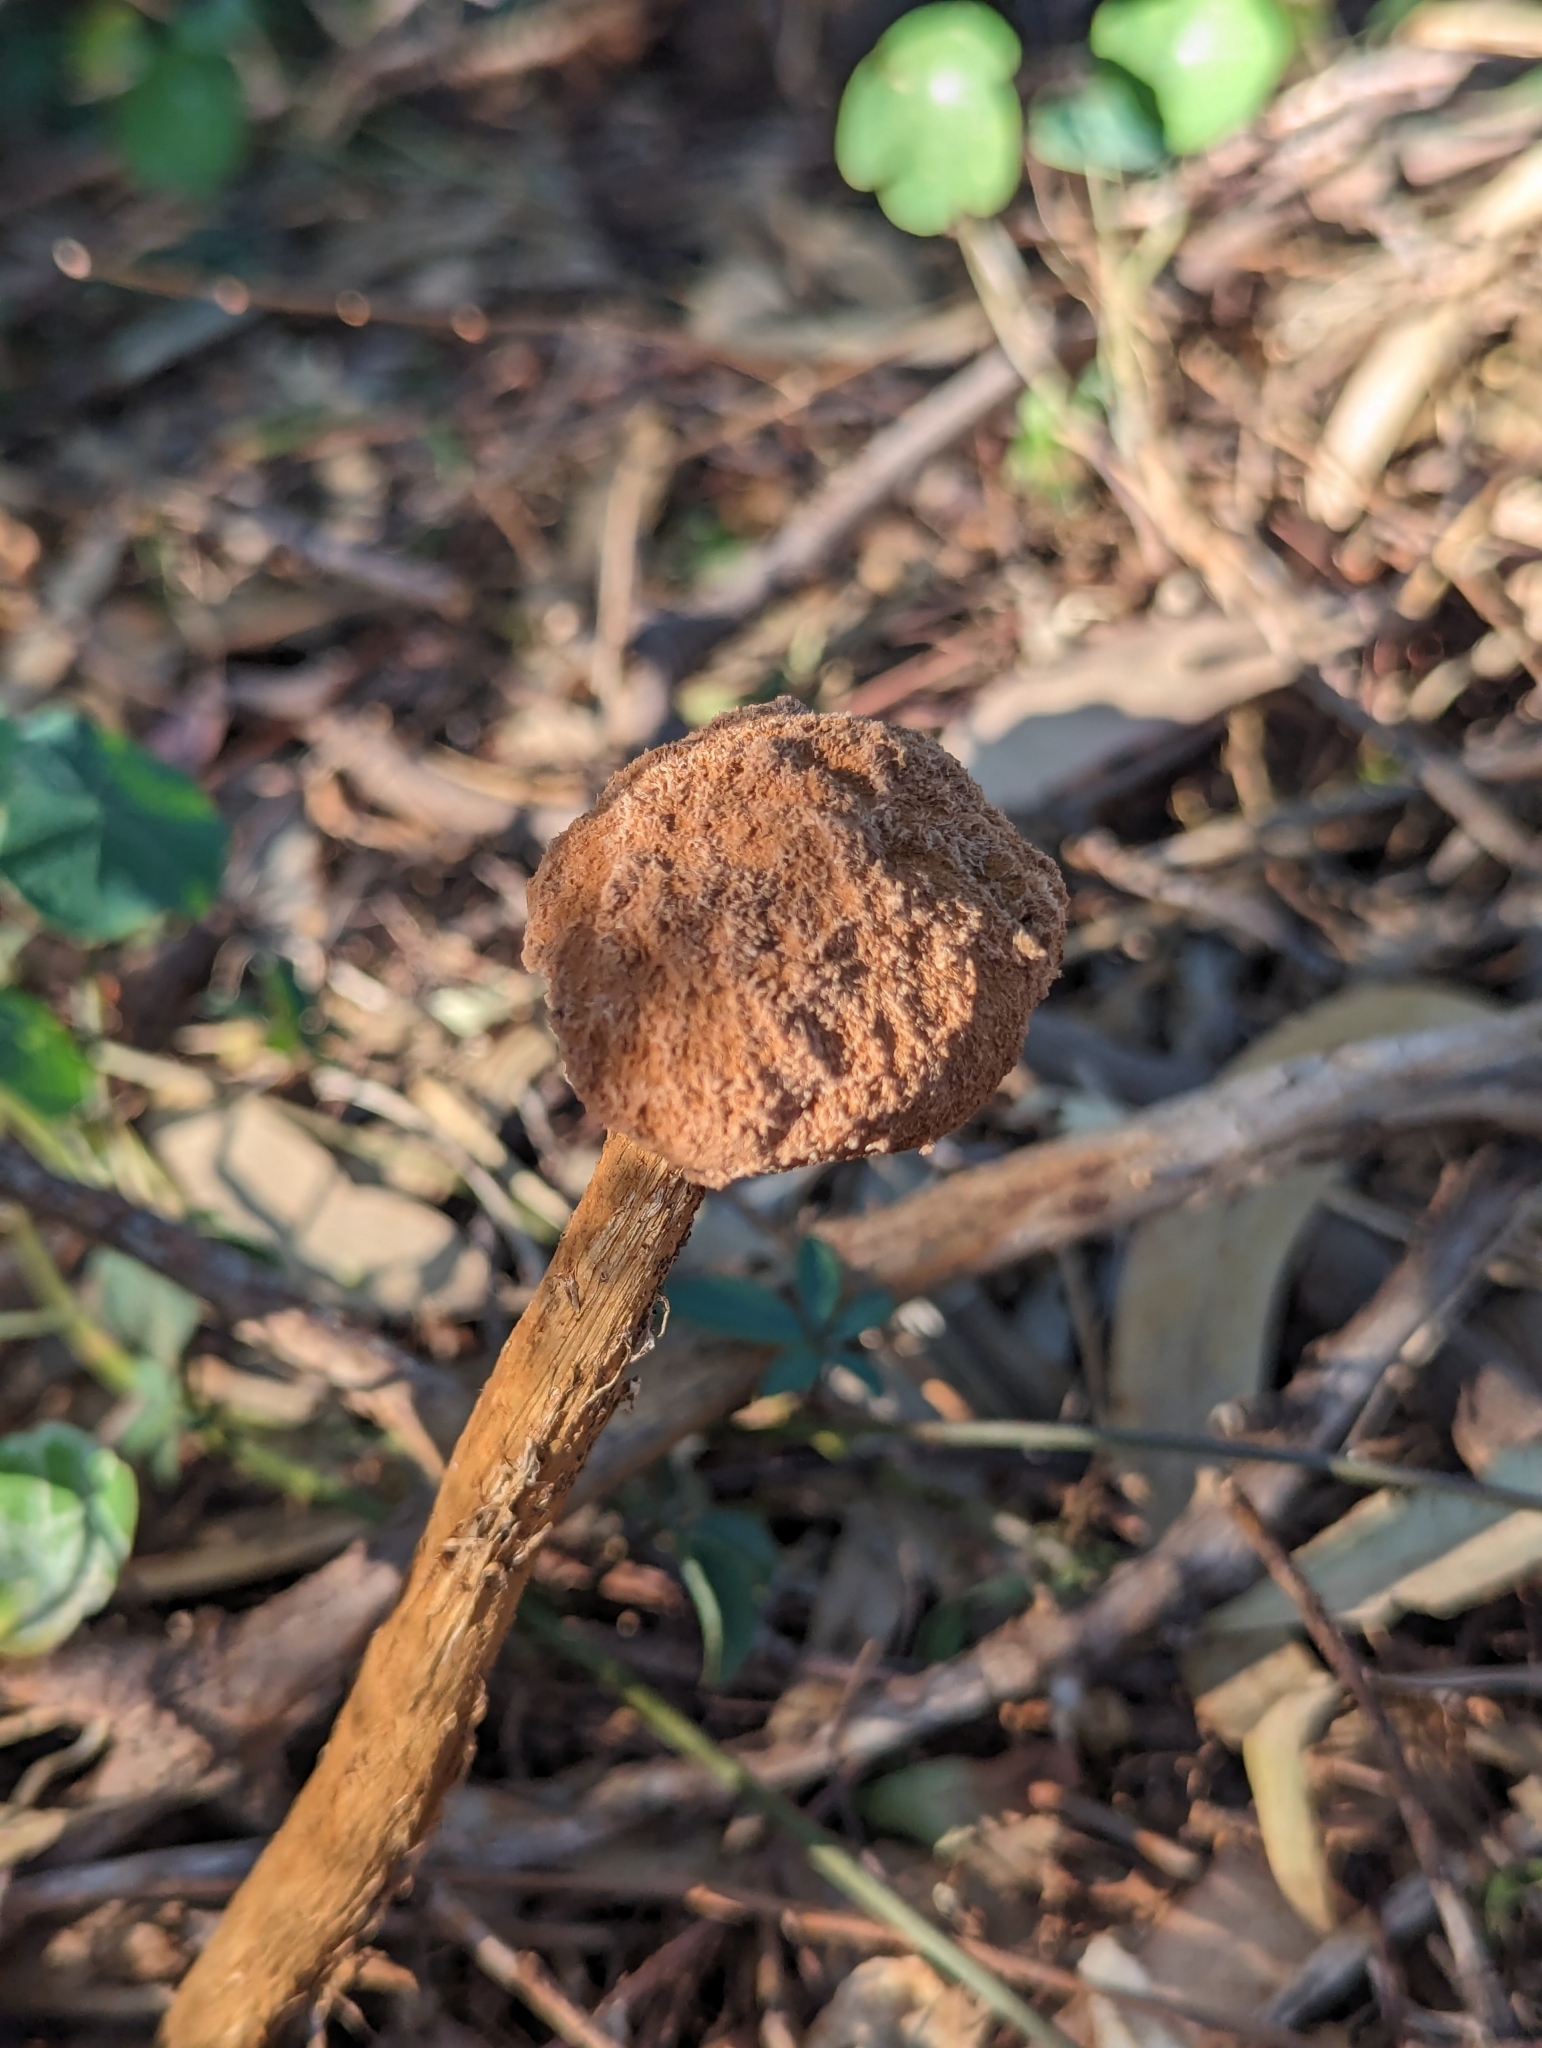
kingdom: Fungi
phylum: Basidiomycota
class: Agaricomycetes
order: Agaricales
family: Agaricaceae
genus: Battarrea
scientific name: Battarrea phalloides
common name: Sandy stiltball
